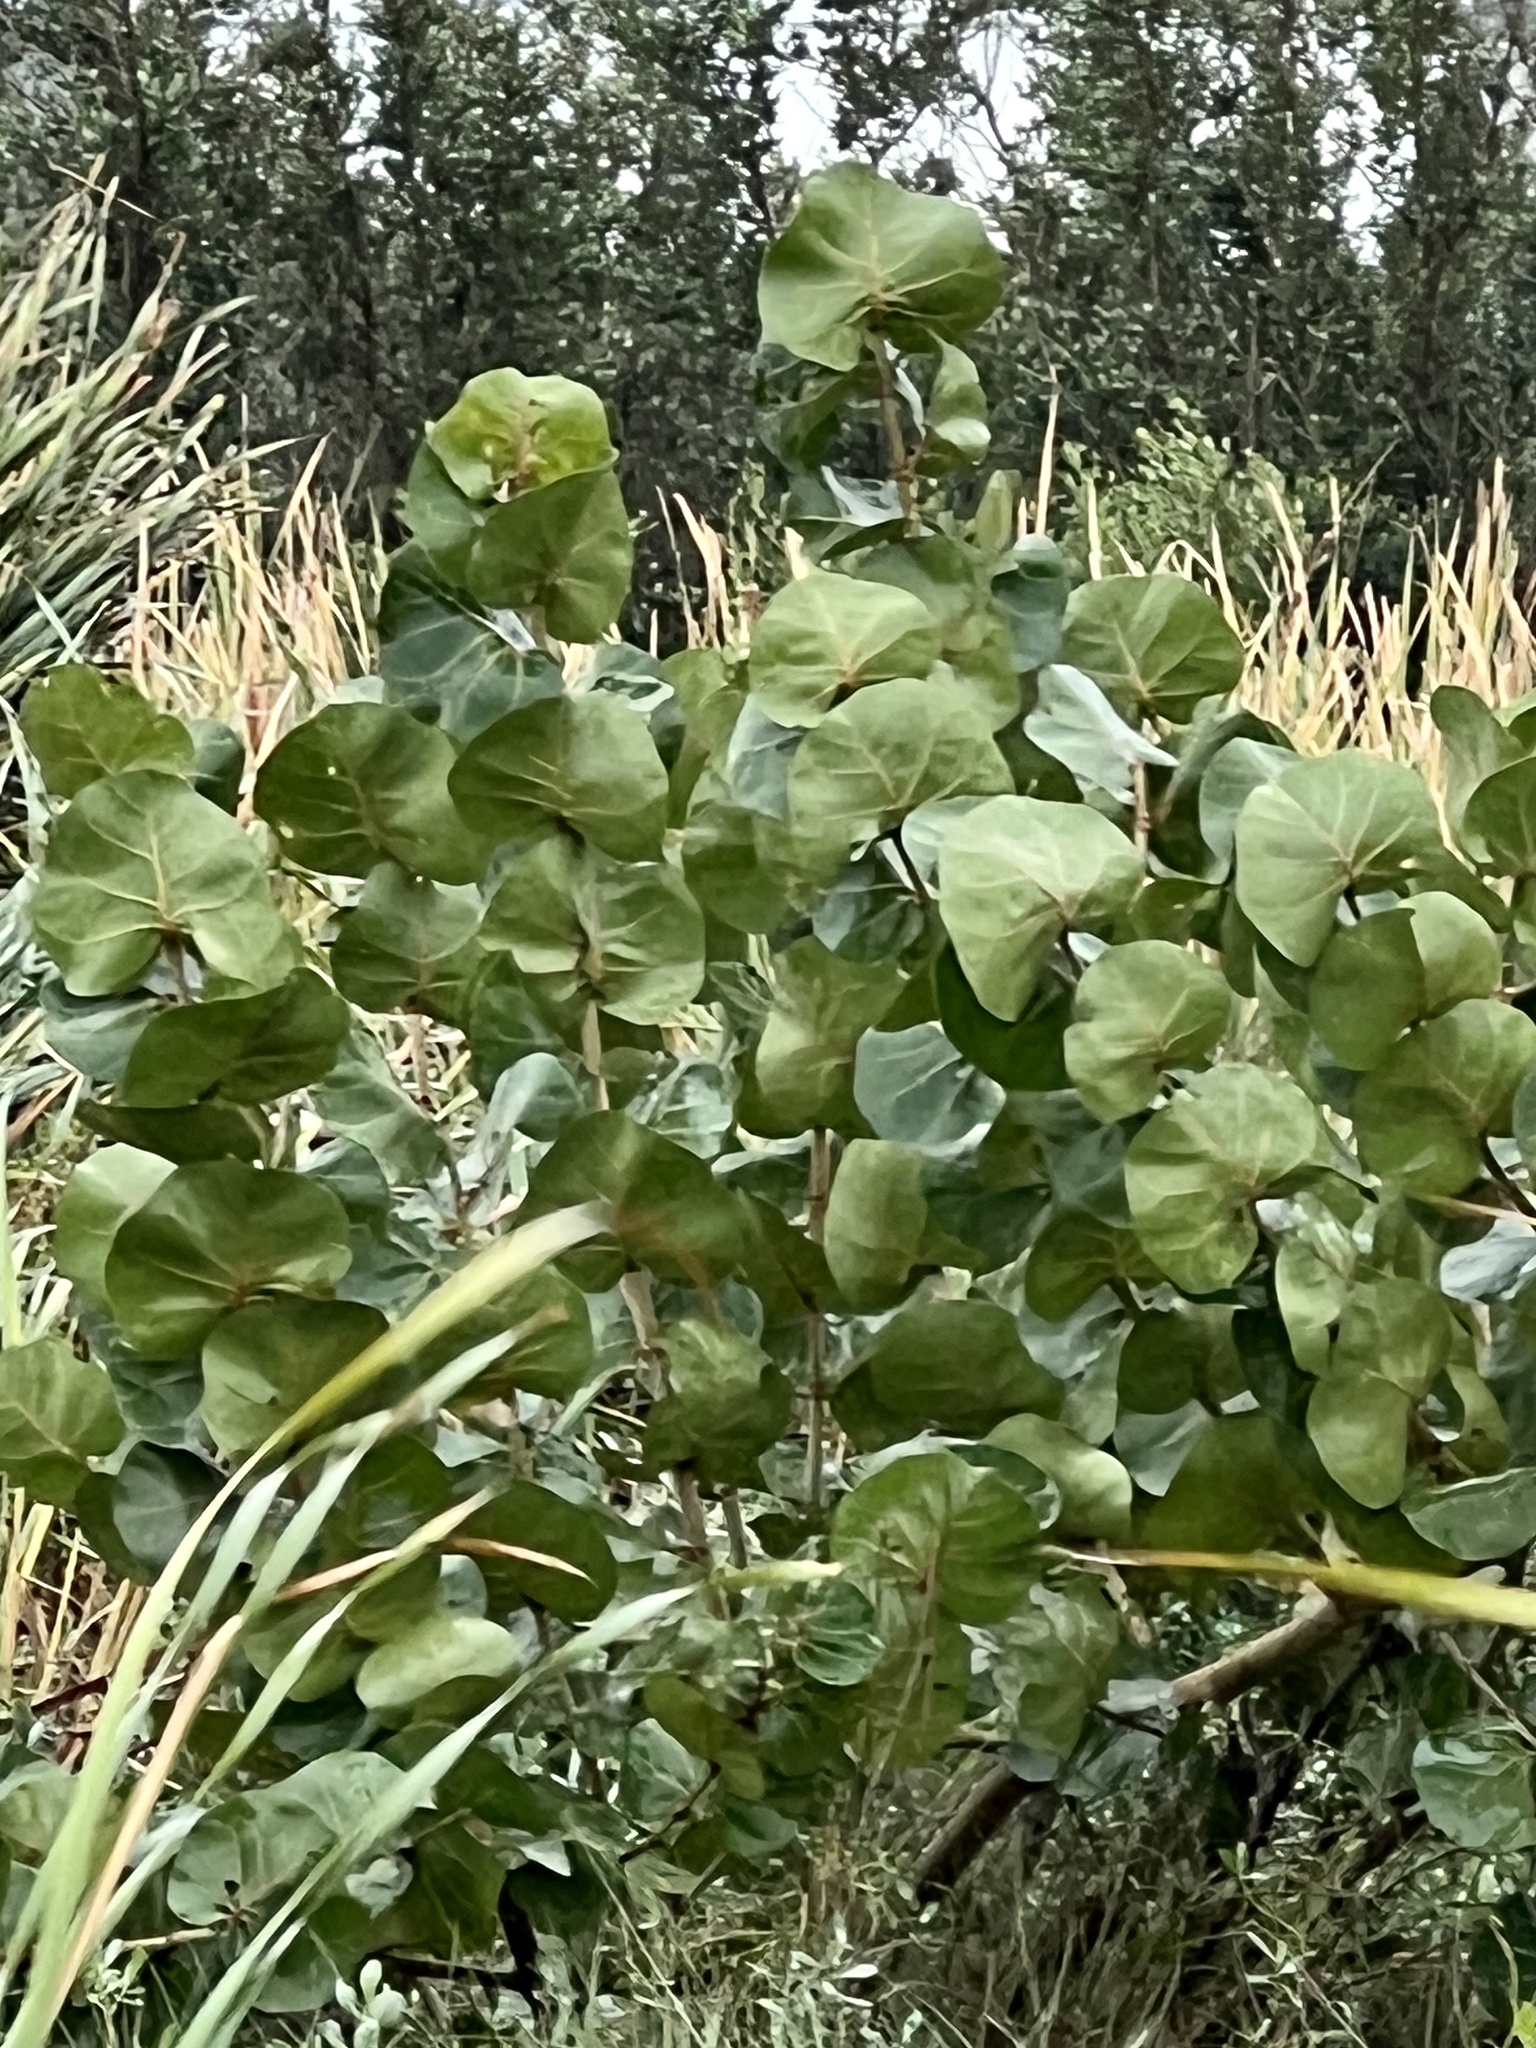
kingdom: Plantae
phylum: Tracheophyta
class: Magnoliopsida
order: Caryophyllales
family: Polygonaceae
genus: Coccoloba
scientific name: Coccoloba uvifera
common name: Seagrape
